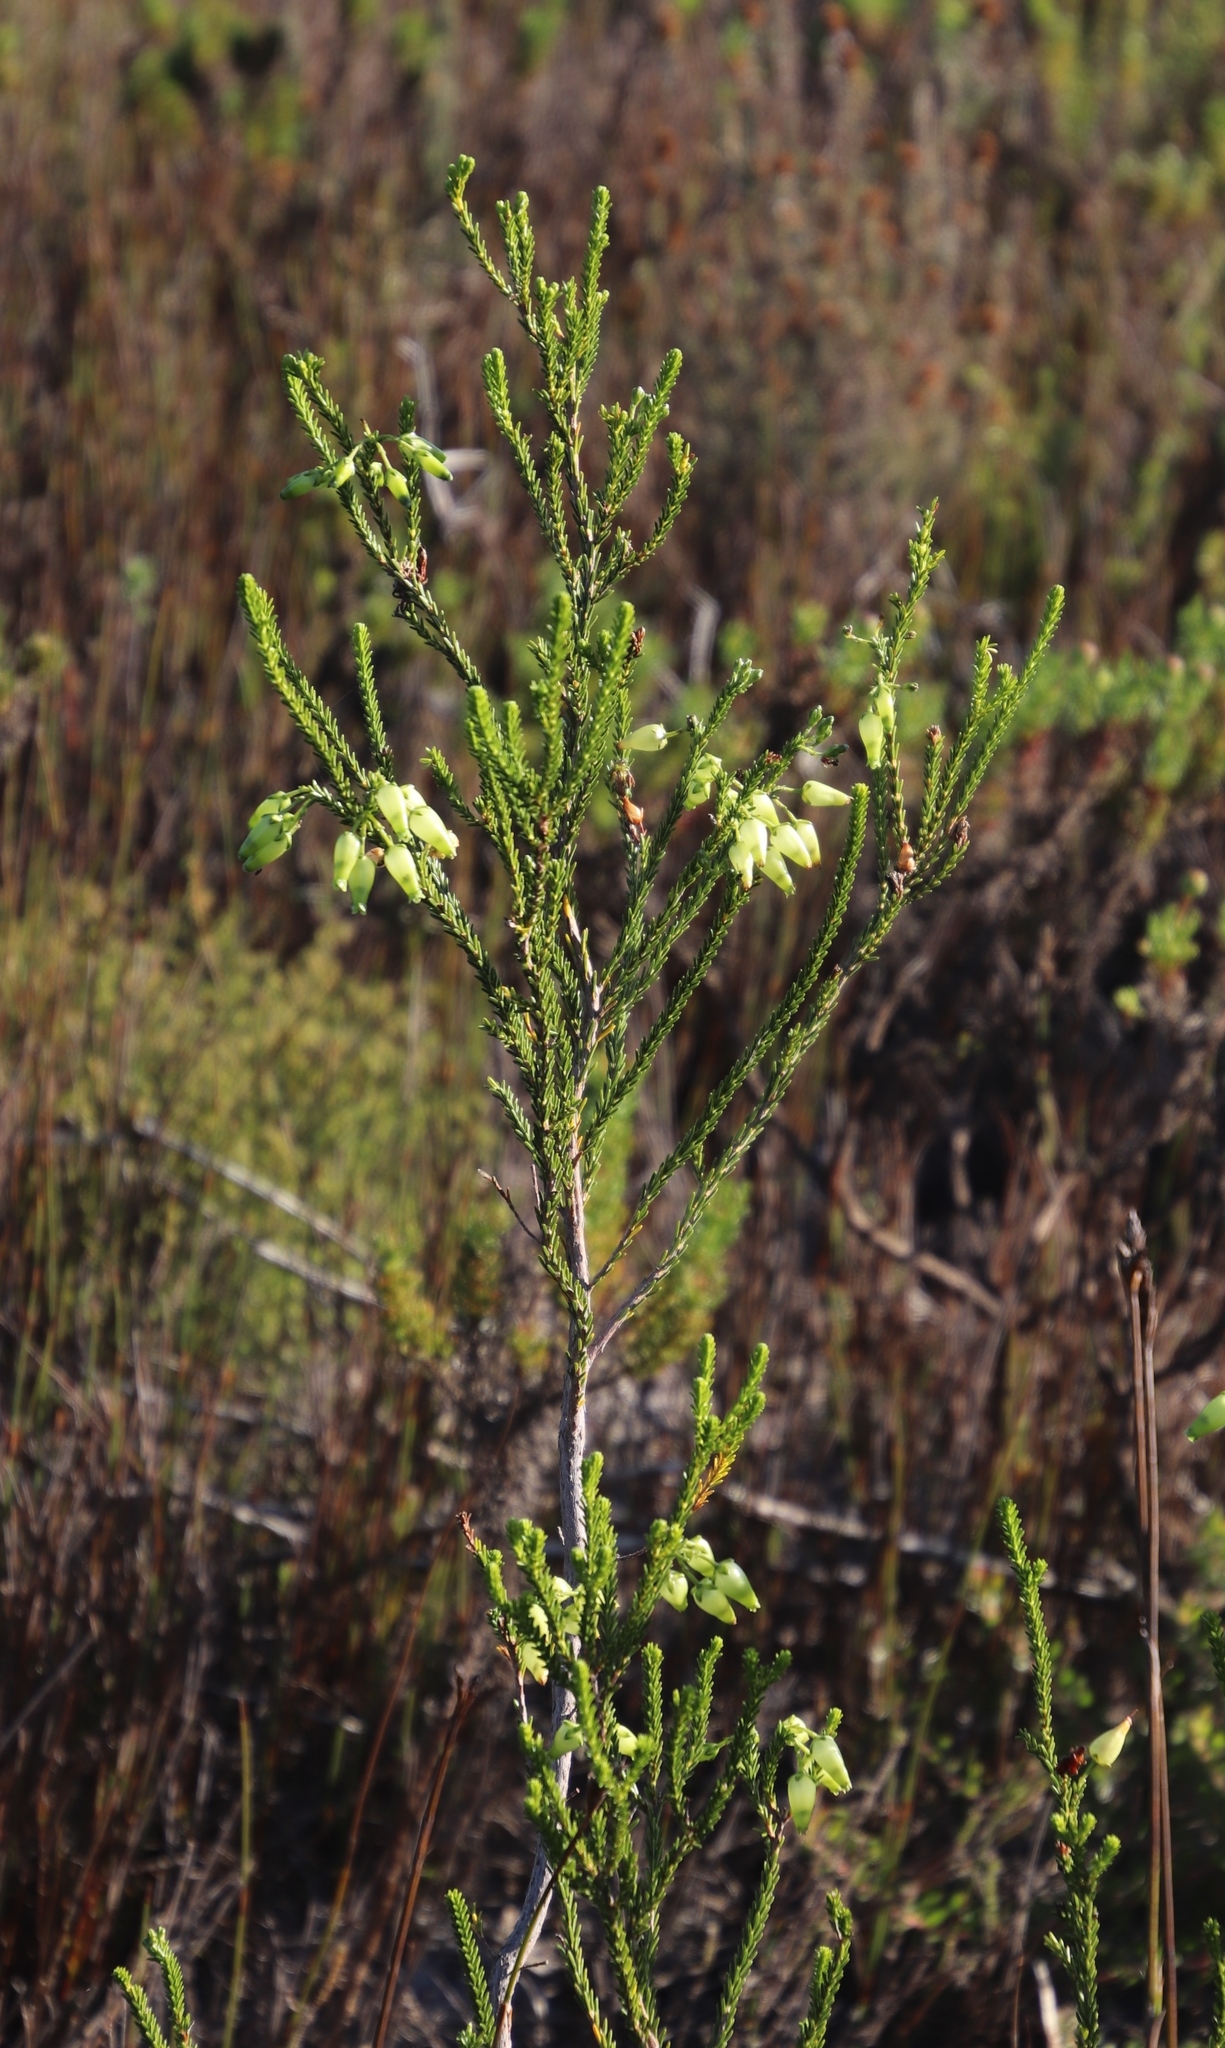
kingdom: Plantae
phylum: Tracheophyta
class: Magnoliopsida
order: Ericales
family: Ericaceae
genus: Erica
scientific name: Erica urna-viridis
